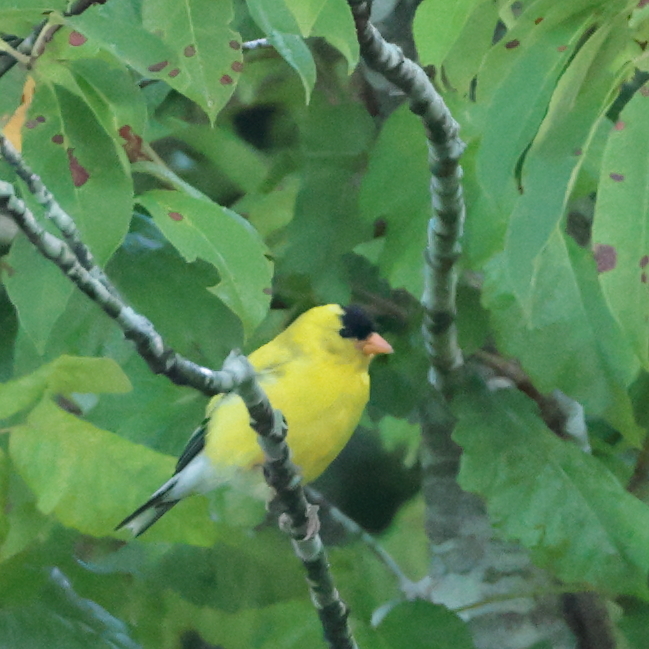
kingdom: Animalia
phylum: Chordata
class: Aves
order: Passeriformes
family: Fringillidae
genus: Spinus
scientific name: Spinus tristis
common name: American goldfinch
